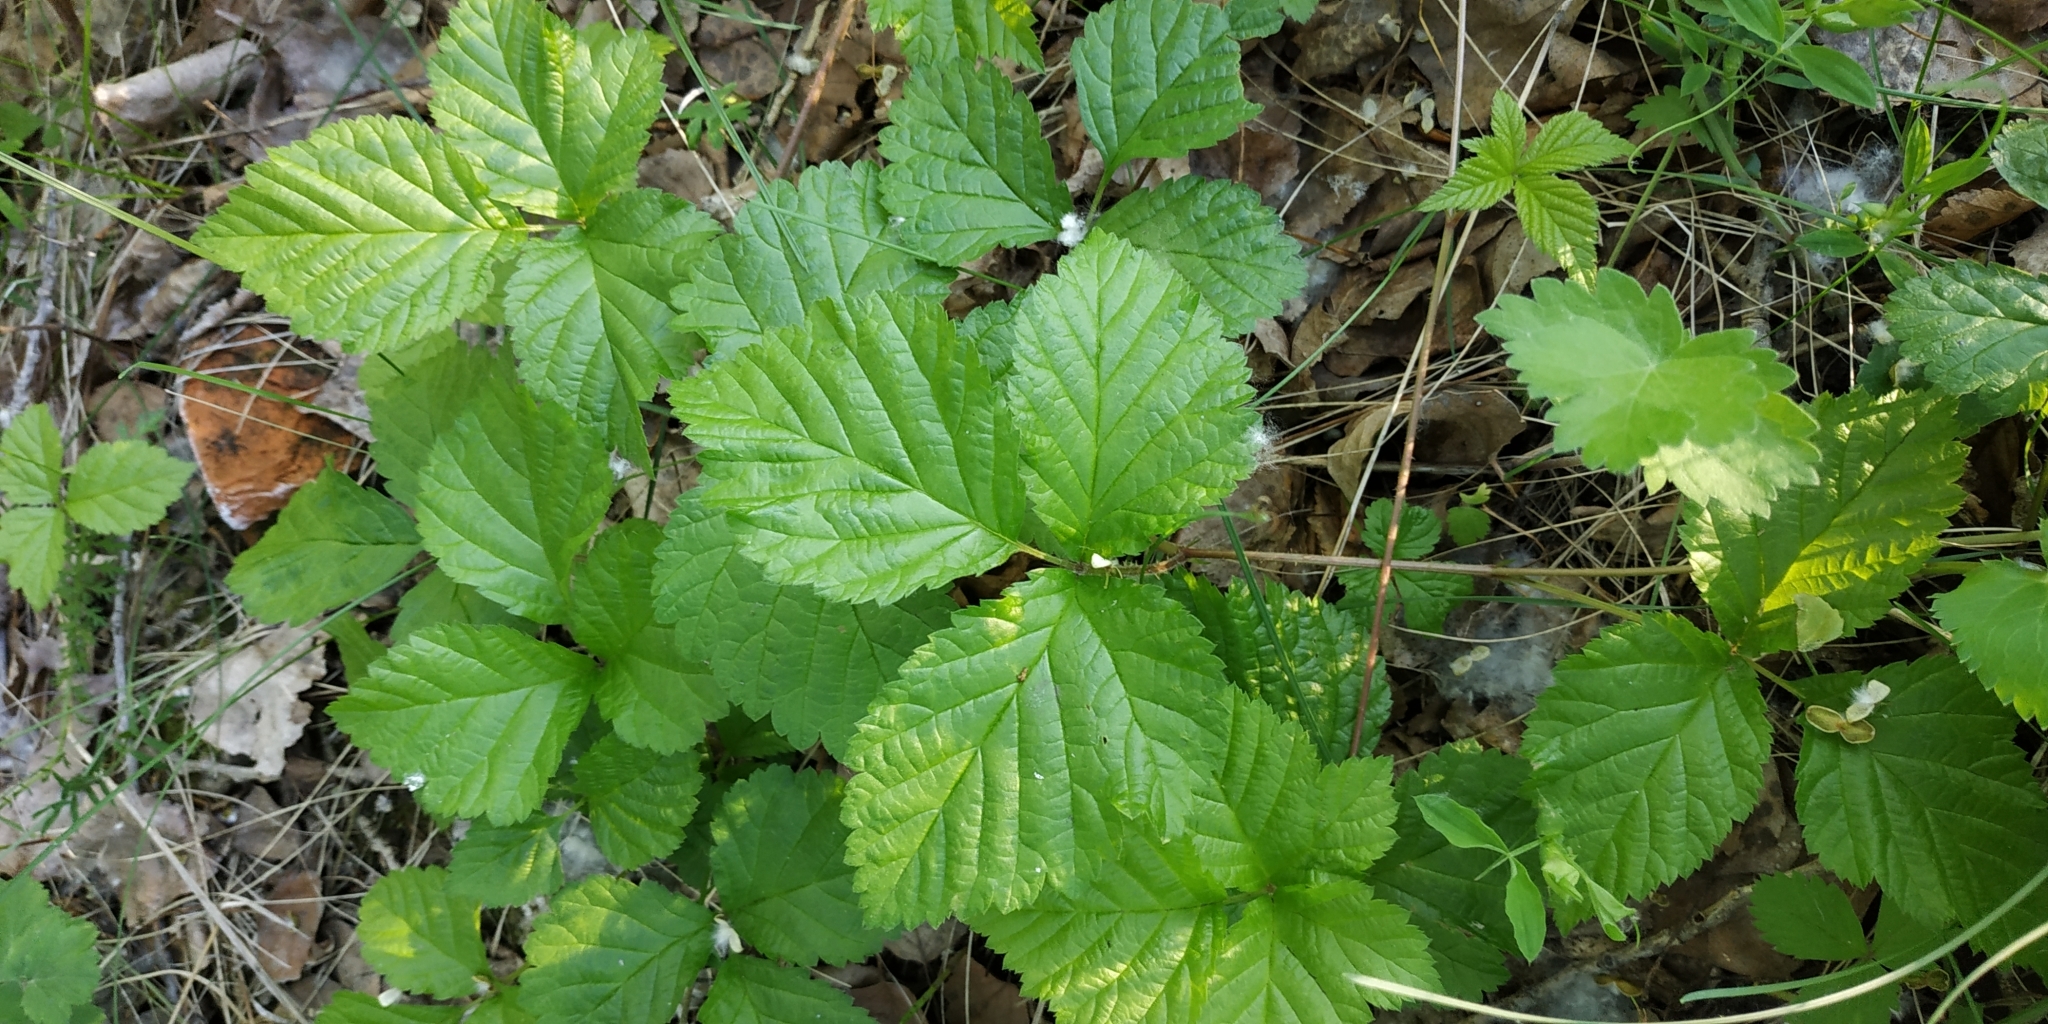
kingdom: Plantae
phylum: Tracheophyta
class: Magnoliopsida
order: Rosales
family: Rosaceae
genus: Rubus
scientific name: Rubus saxatilis
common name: Stone bramble
